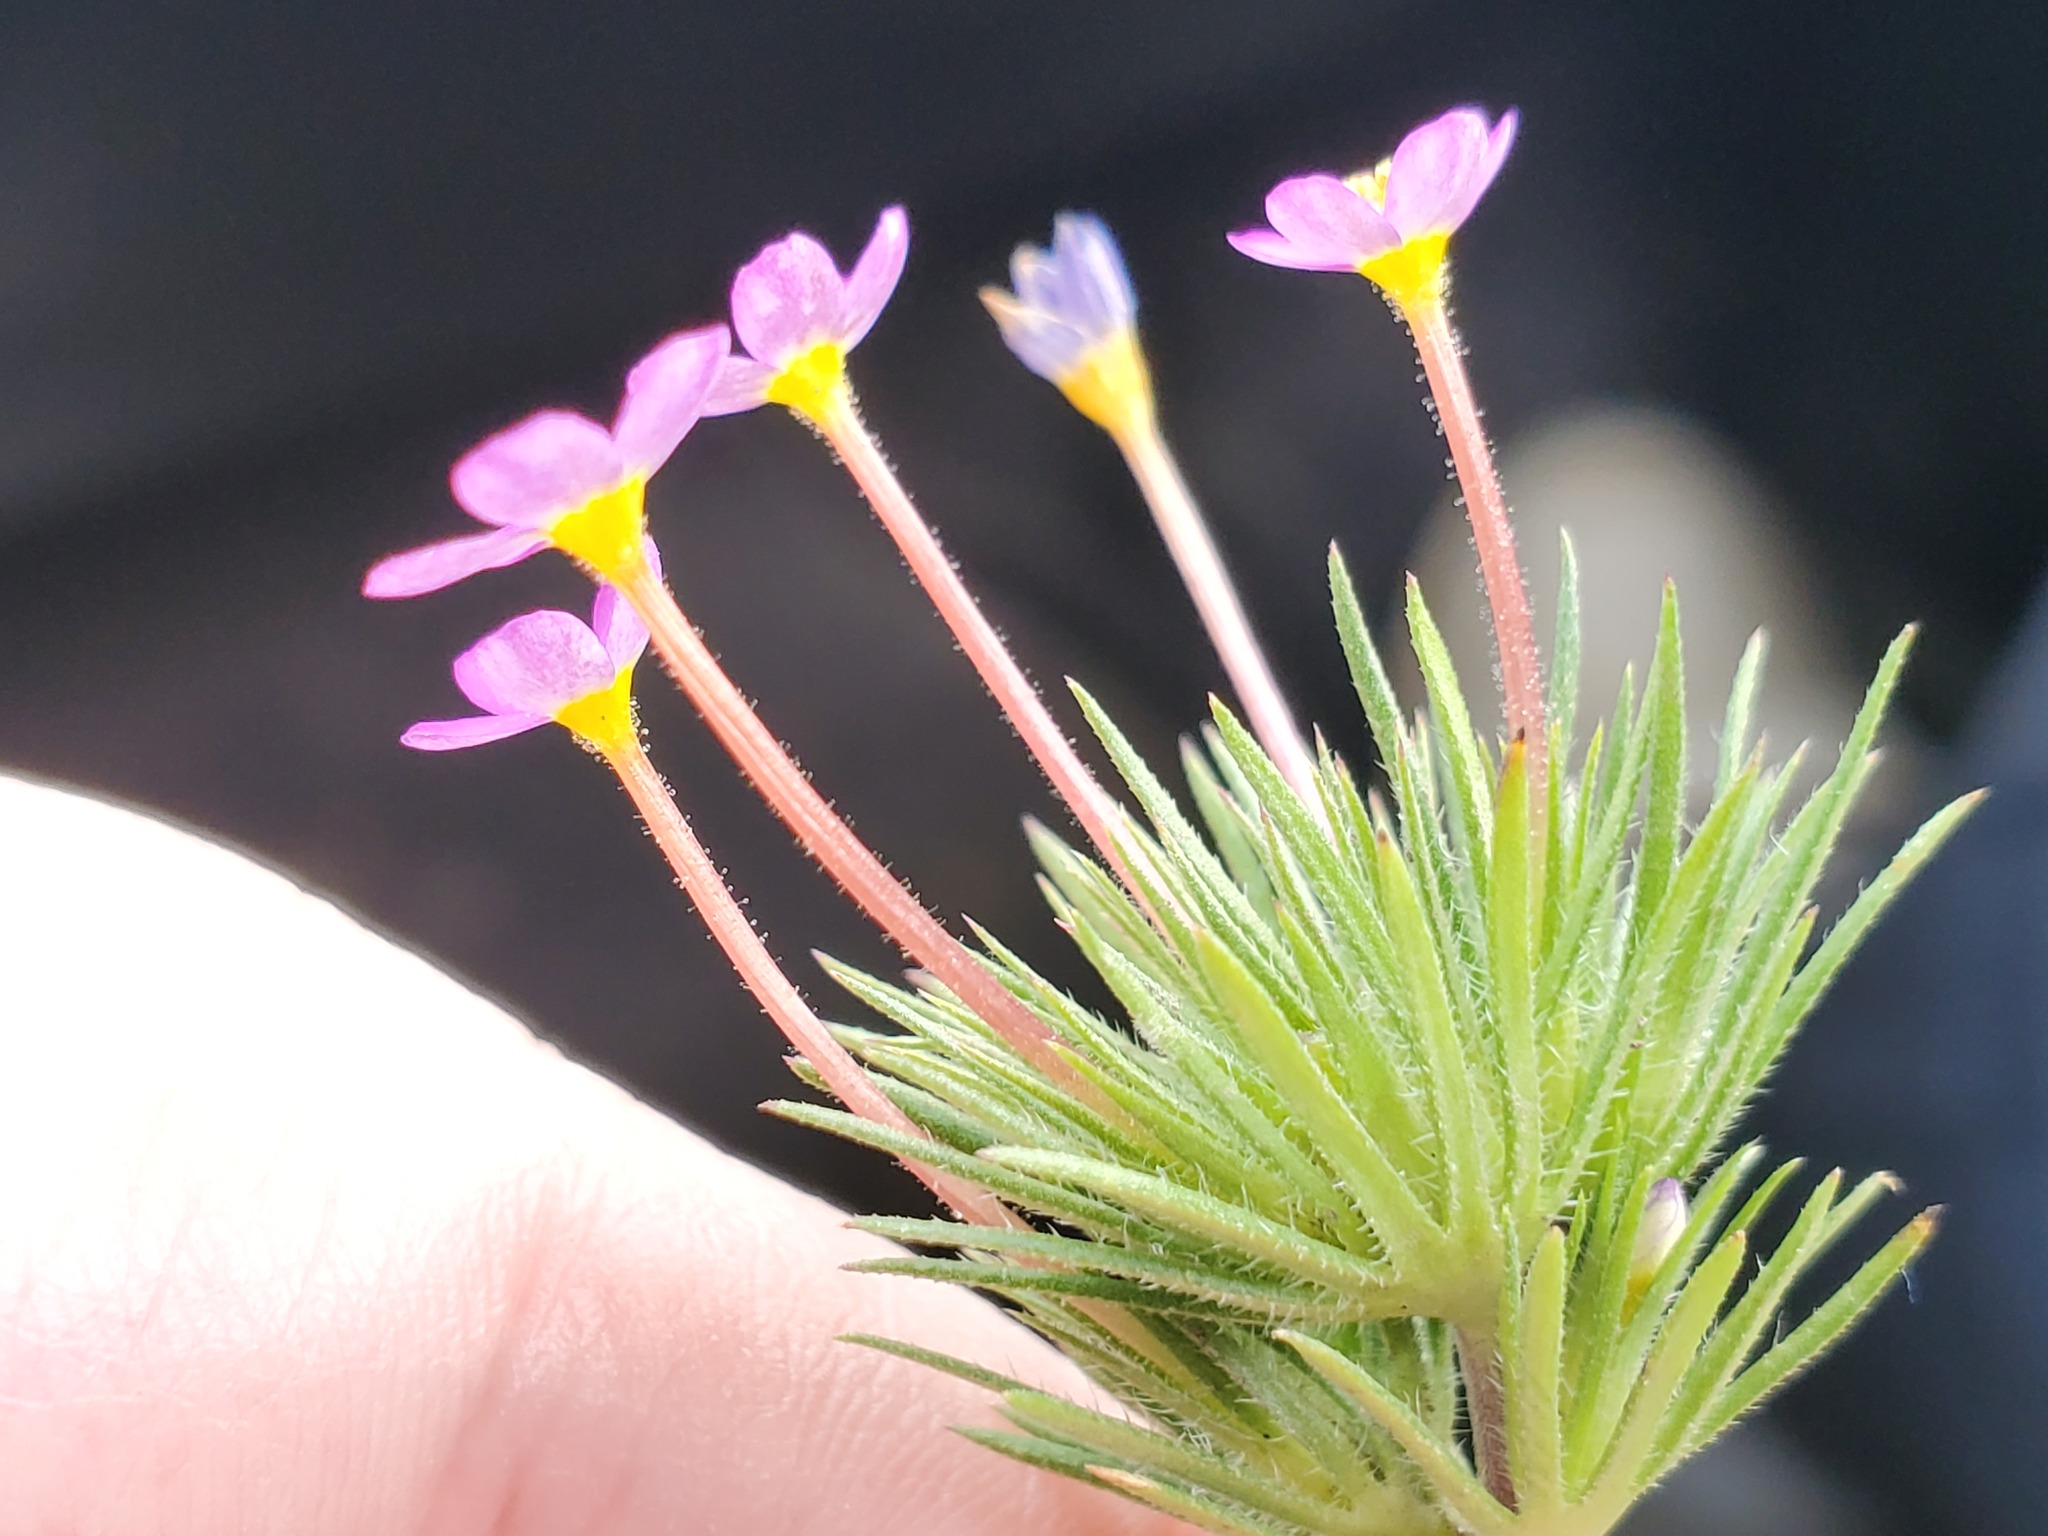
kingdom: Plantae
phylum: Tracheophyta
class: Magnoliopsida
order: Ericales
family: Polemoniaceae
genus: Leptosiphon
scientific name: Leptosiphon bicolor
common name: True babystars
